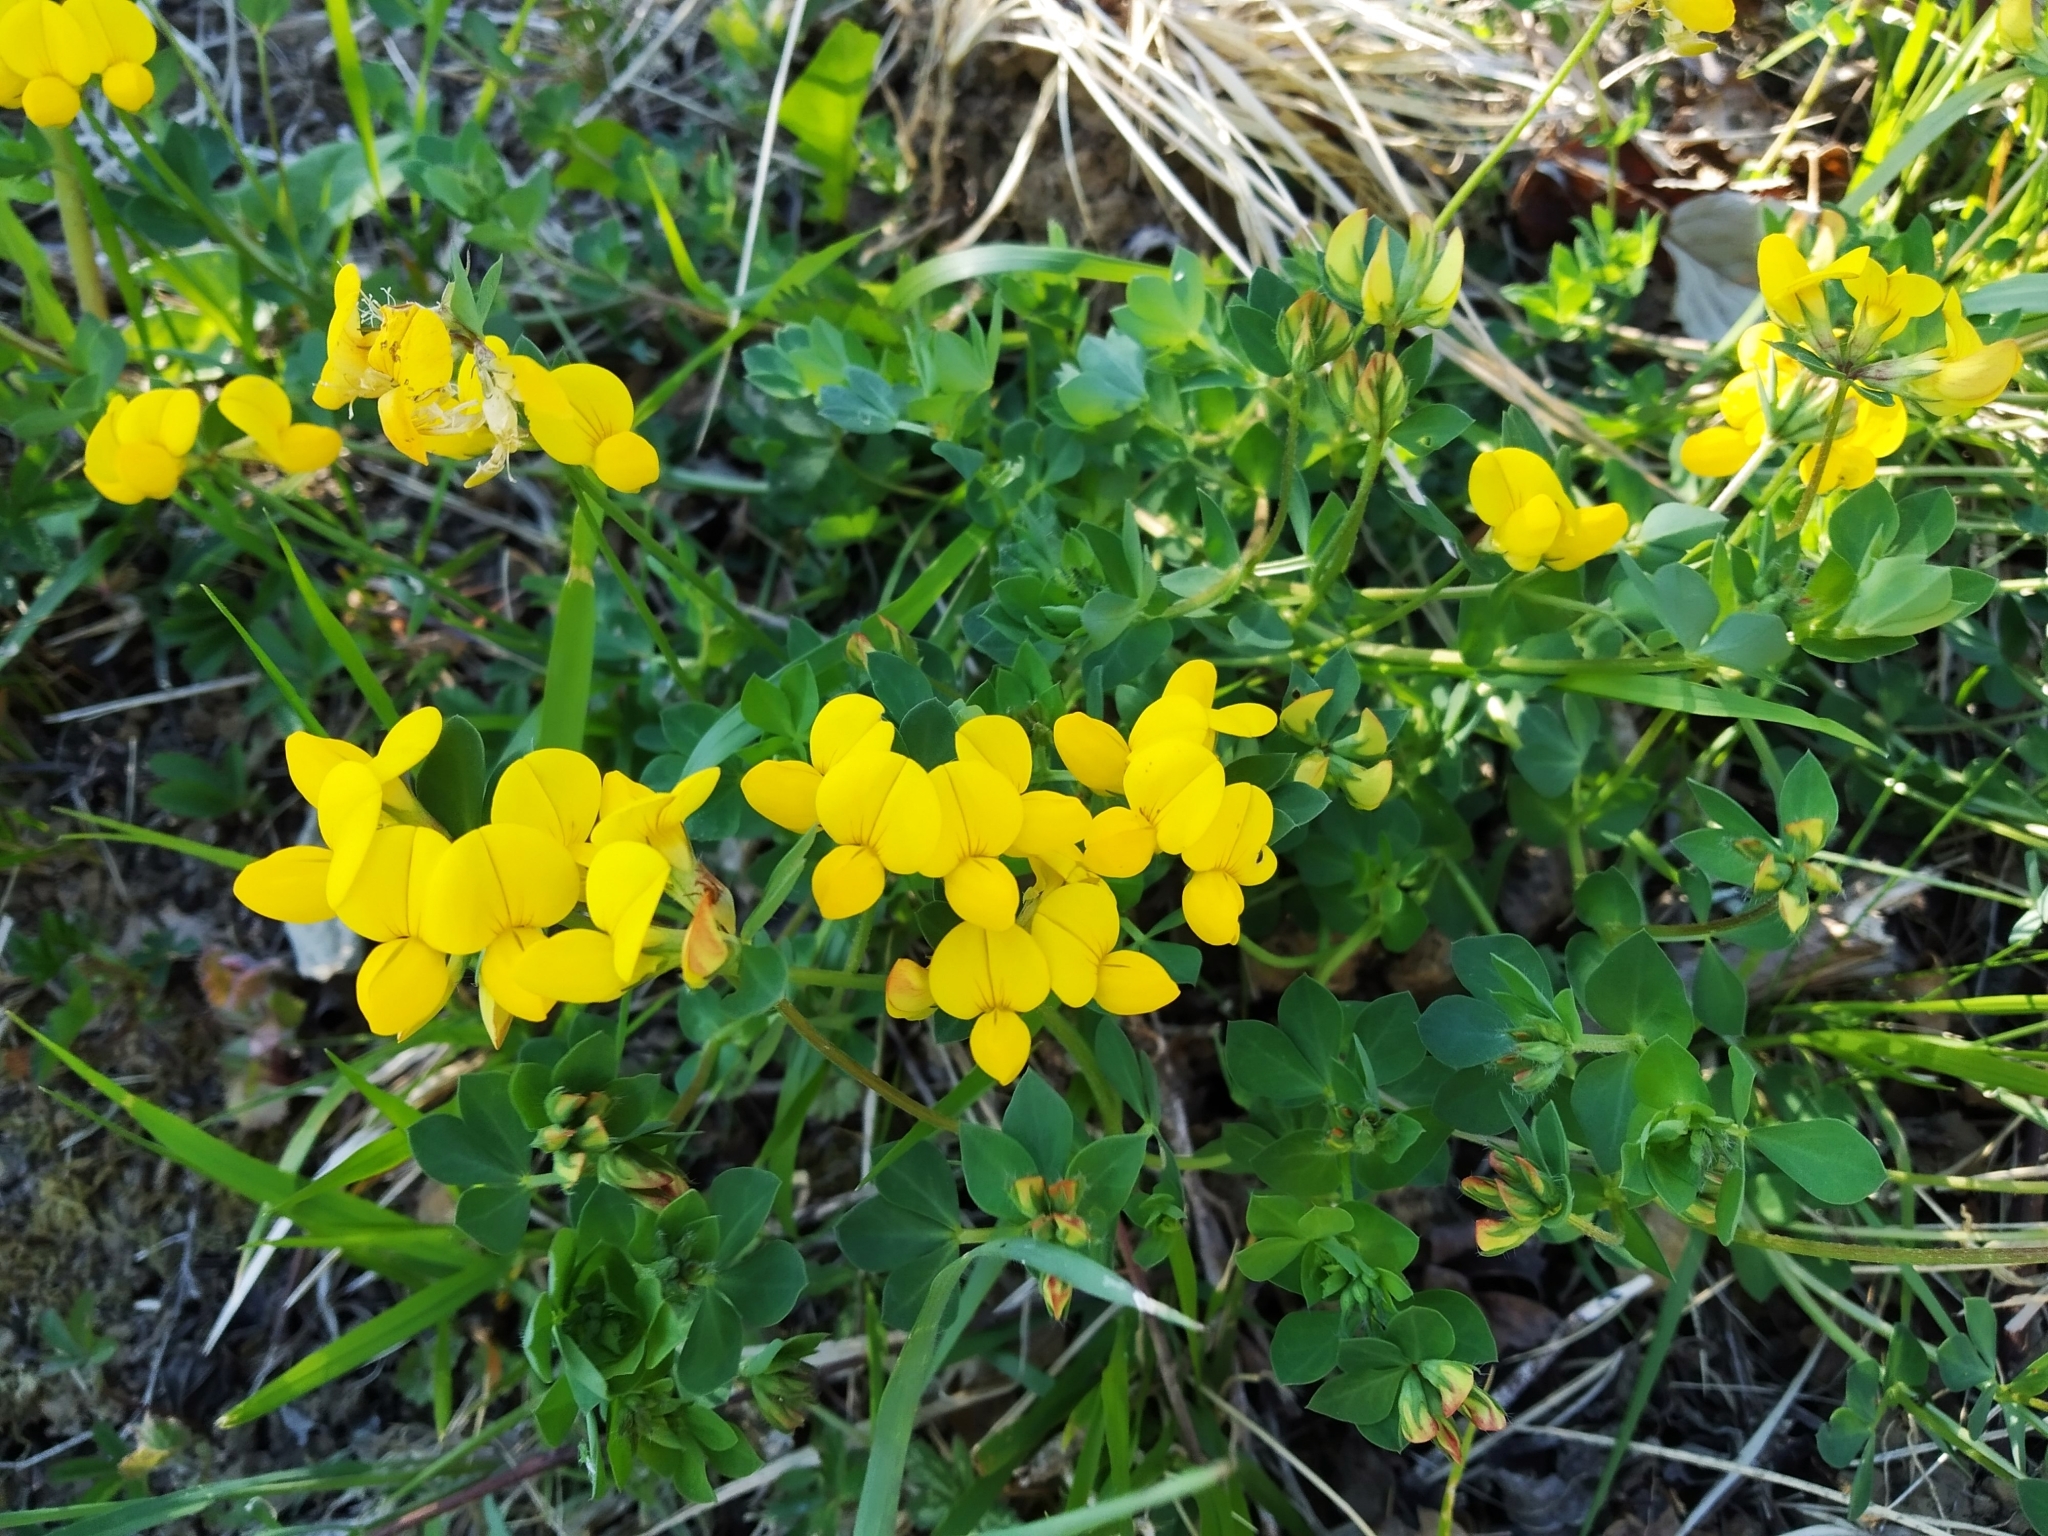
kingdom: Plantae
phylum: Tracheophyta
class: Magnoliopsida
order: Fabales
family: Fabaceae
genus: Lotus
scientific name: Lotus corniculatus
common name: Common bird's-foot-trefoil
